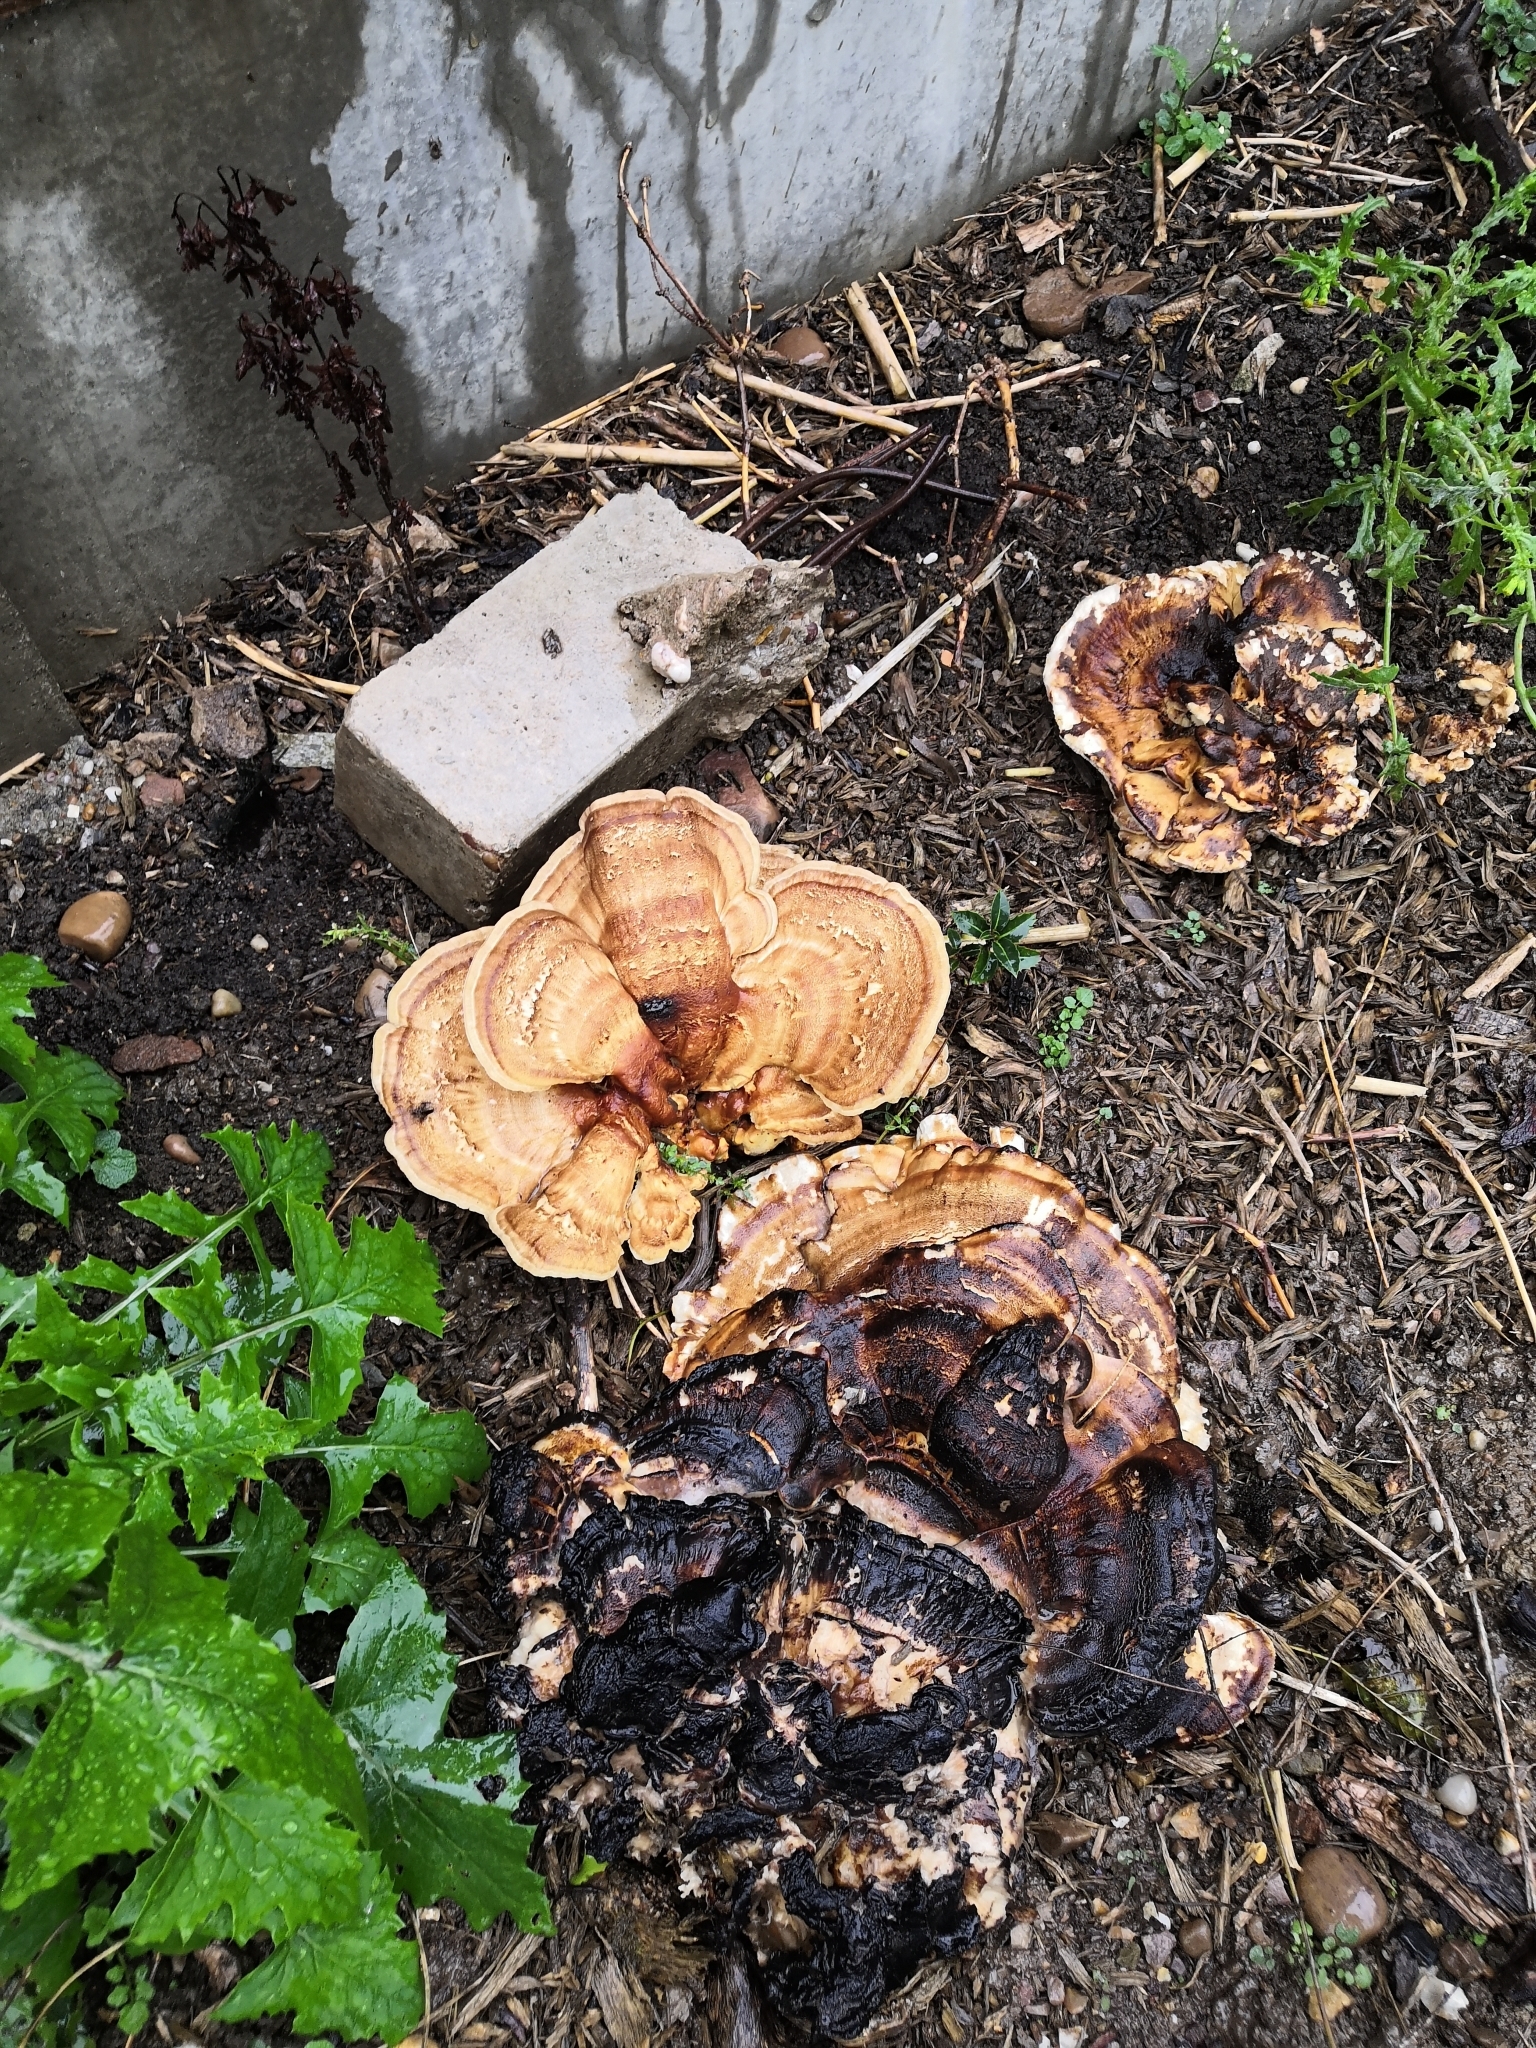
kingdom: Fungi
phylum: Basidiomycota
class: Agaricomycetes
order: Polyporales
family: Meripilaceae
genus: Meripilus
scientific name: Meripilus giganteus
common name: Giant polypore
